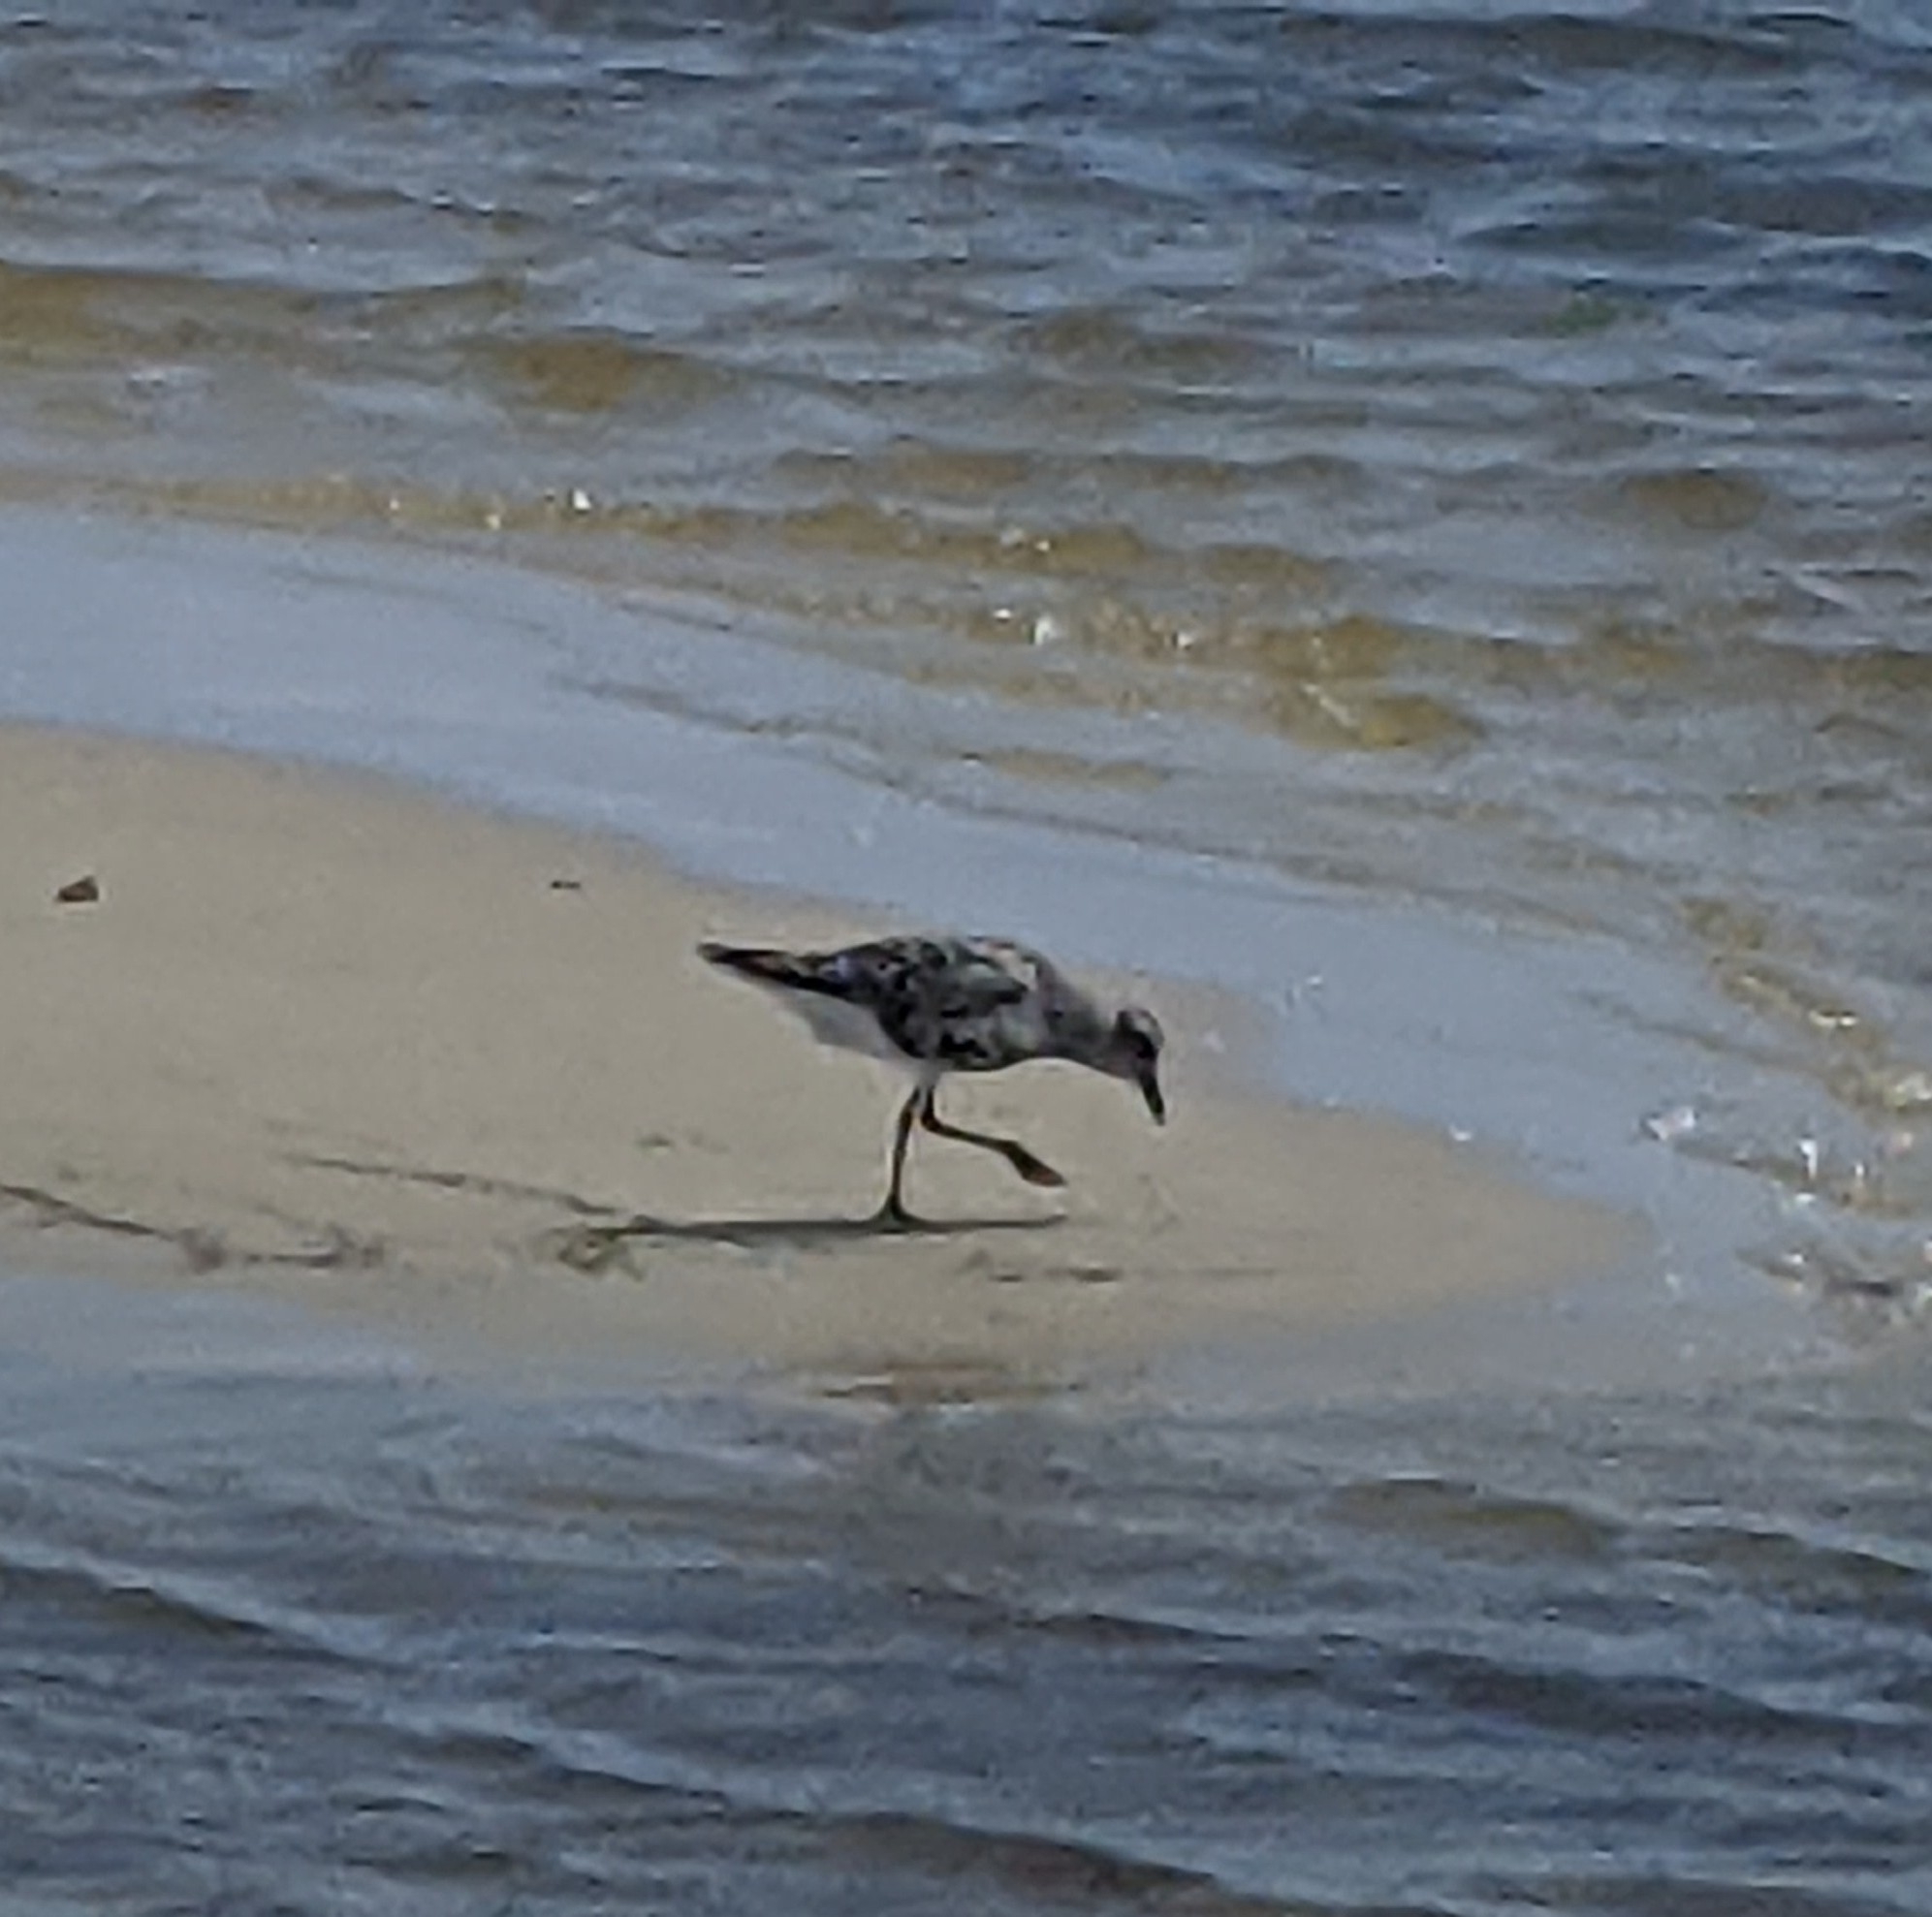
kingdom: Animalia
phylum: Chordata
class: Aves
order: Charadriiformes
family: Charadriidae
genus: Pluvialis
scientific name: Pluvialis squatarola
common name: Grey plover
